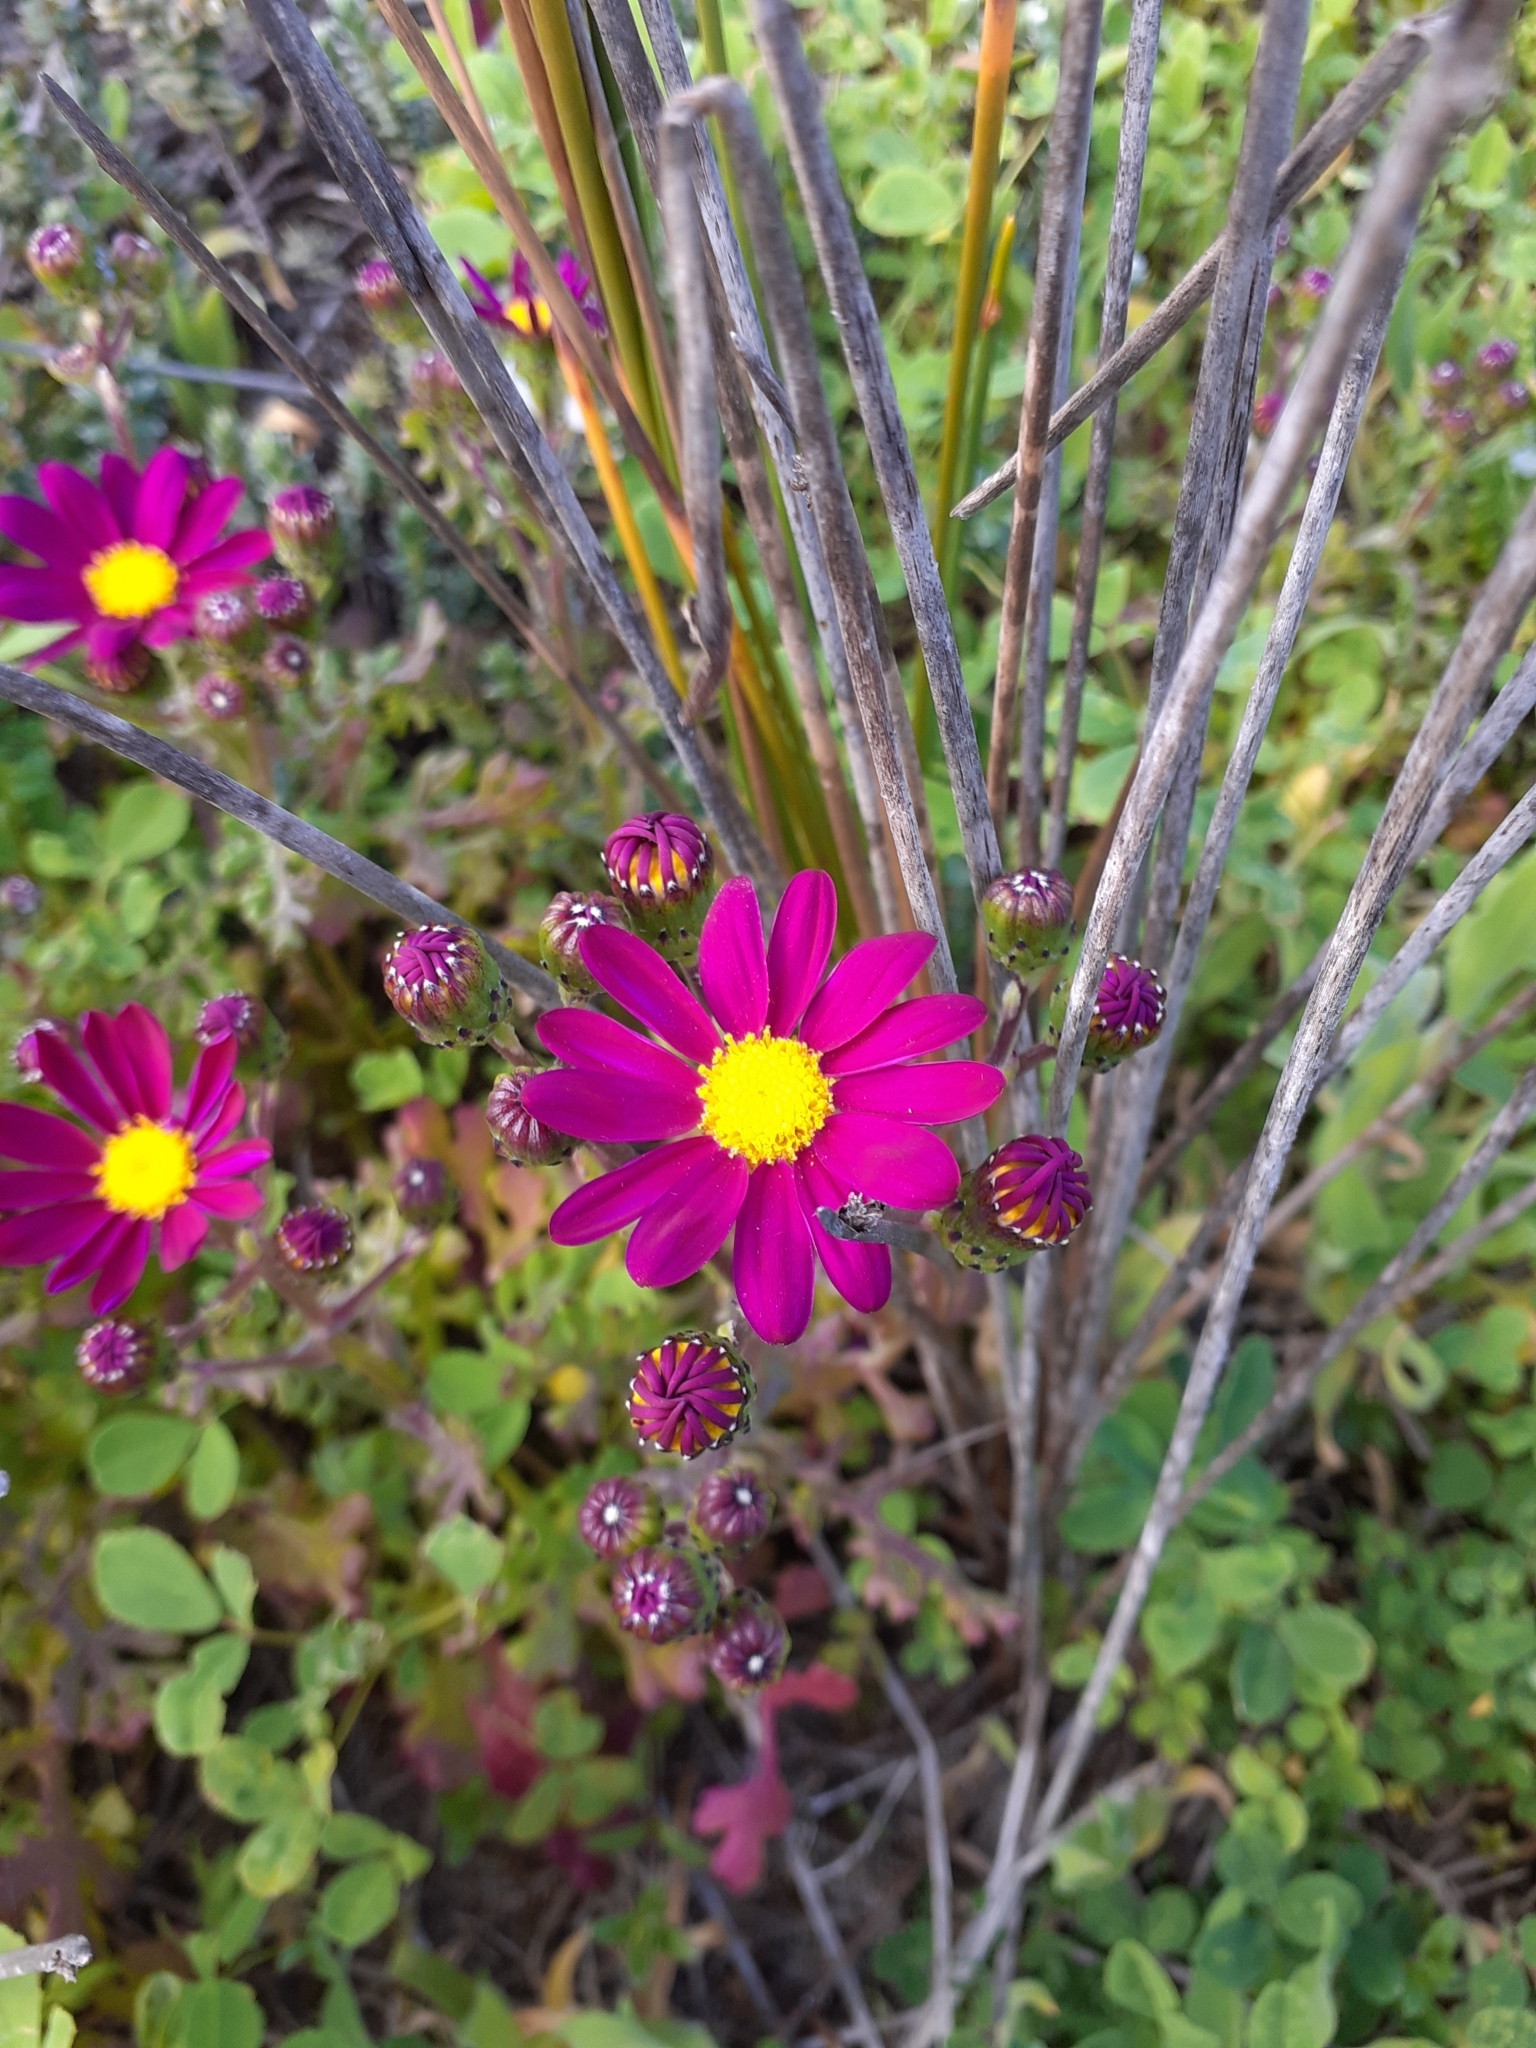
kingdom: Plantae
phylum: Tracheophyta
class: Magnoliopsida
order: Asterales
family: Asteraceae
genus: Senecio
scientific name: Senecio elegans
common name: Purple groundsel
